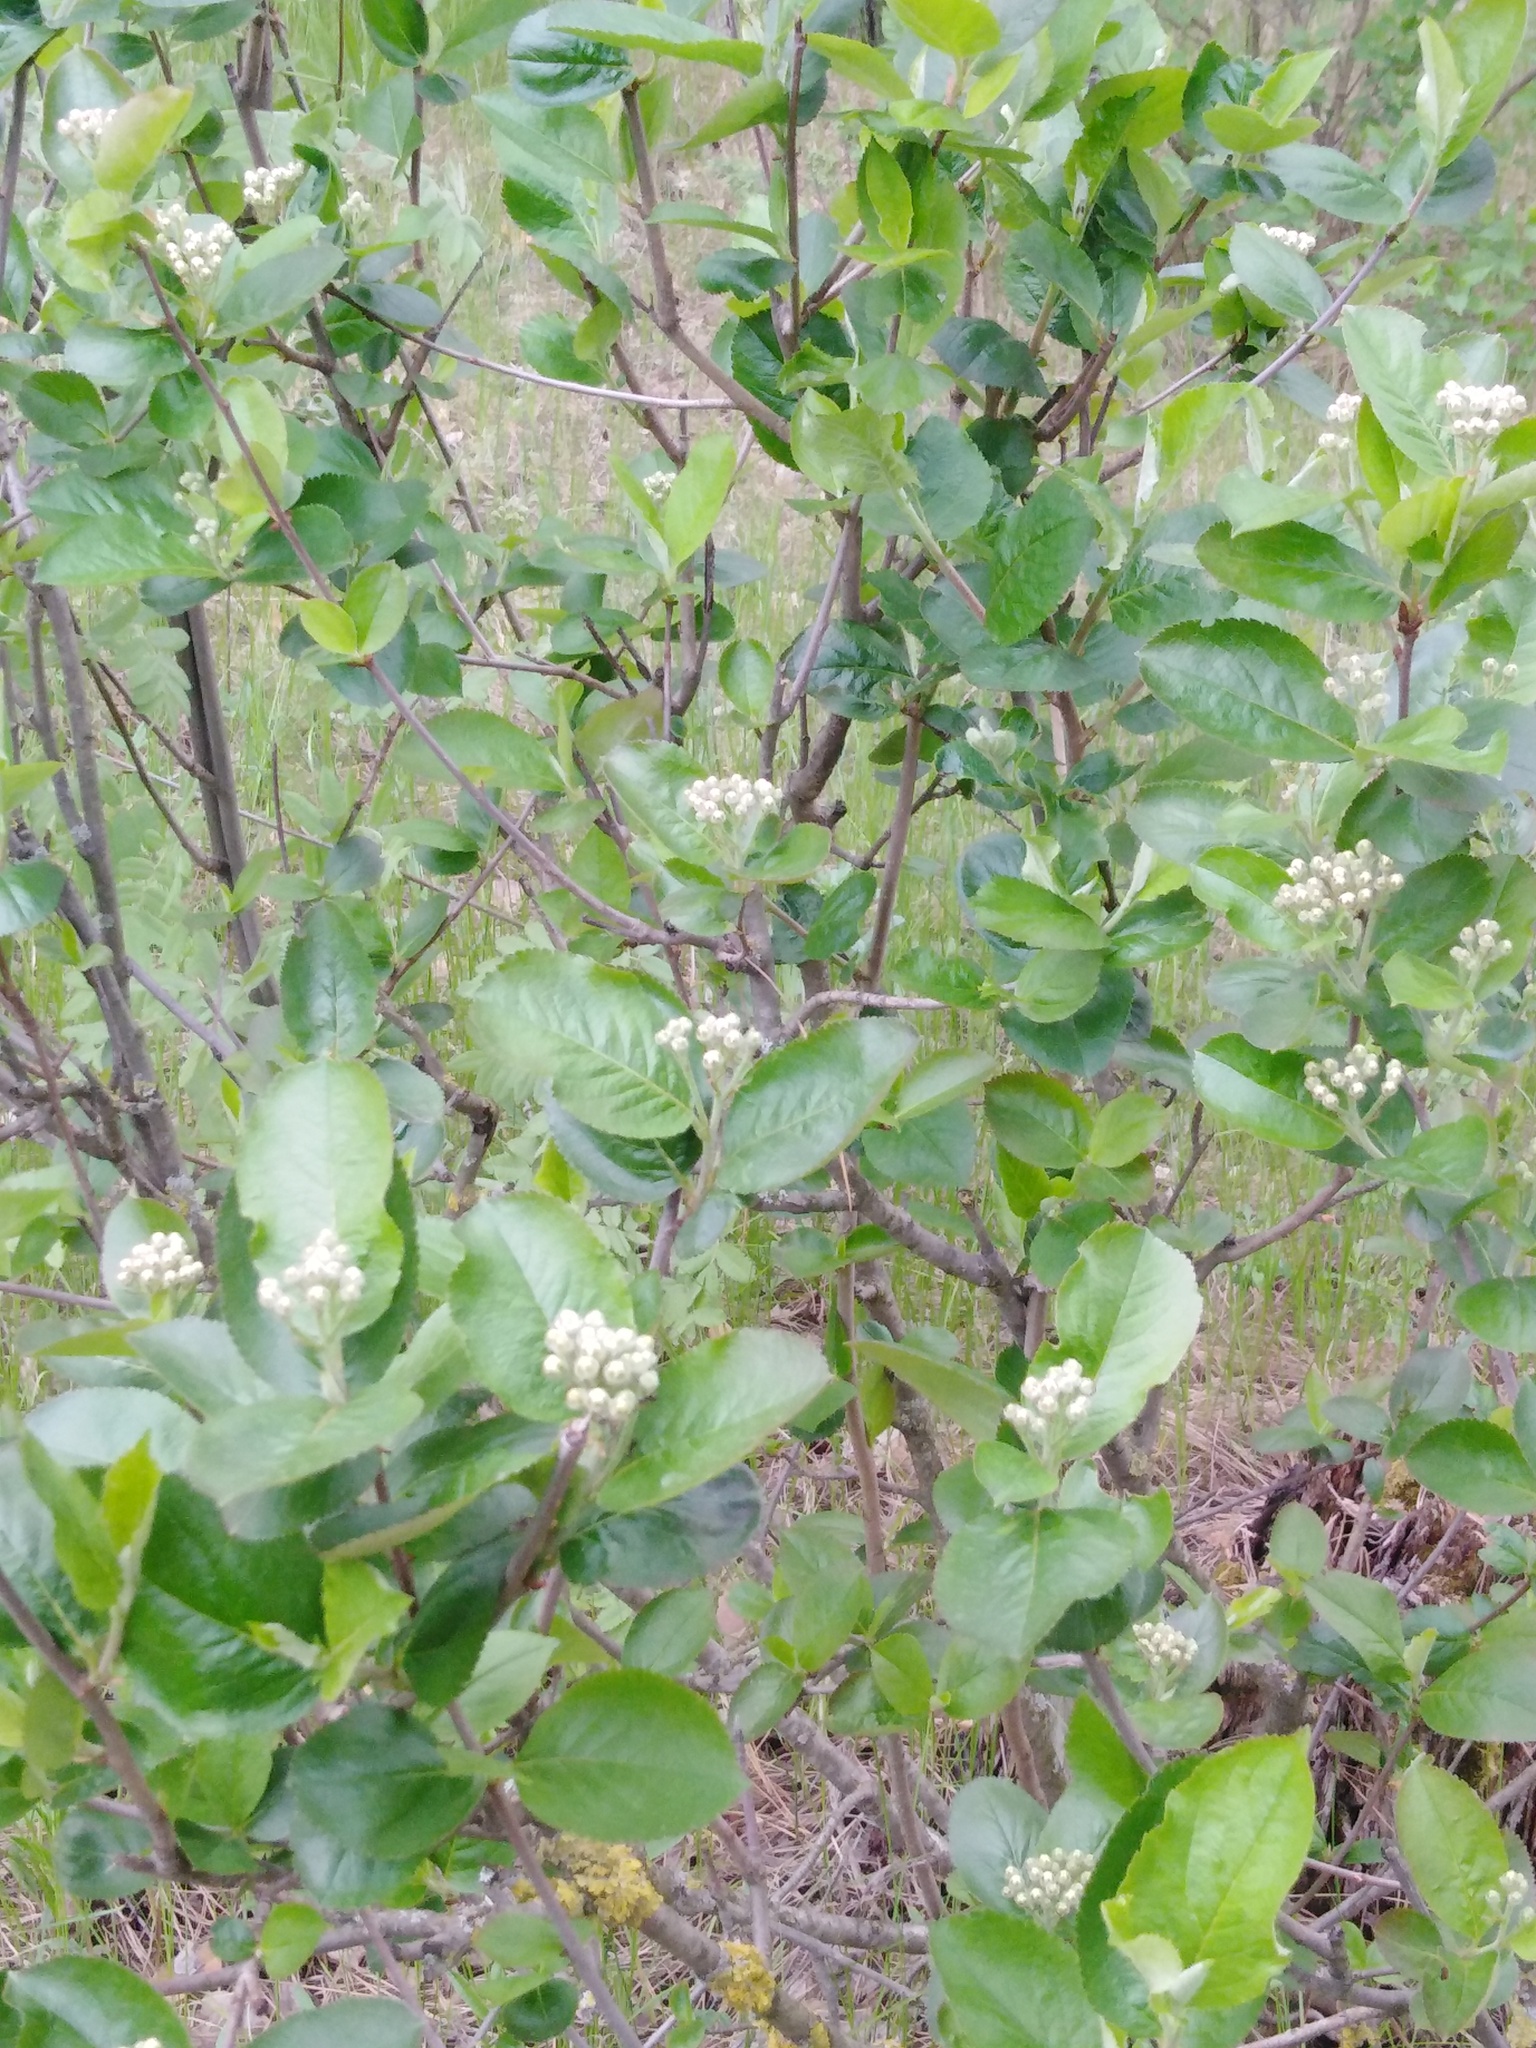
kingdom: Plantae
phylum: Tracheophyta
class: Magnoliopsida
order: Rosales
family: Rosaceae
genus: Sorbaronia
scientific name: Sorbaronia arsenii
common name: Arsène's mountain-ash
